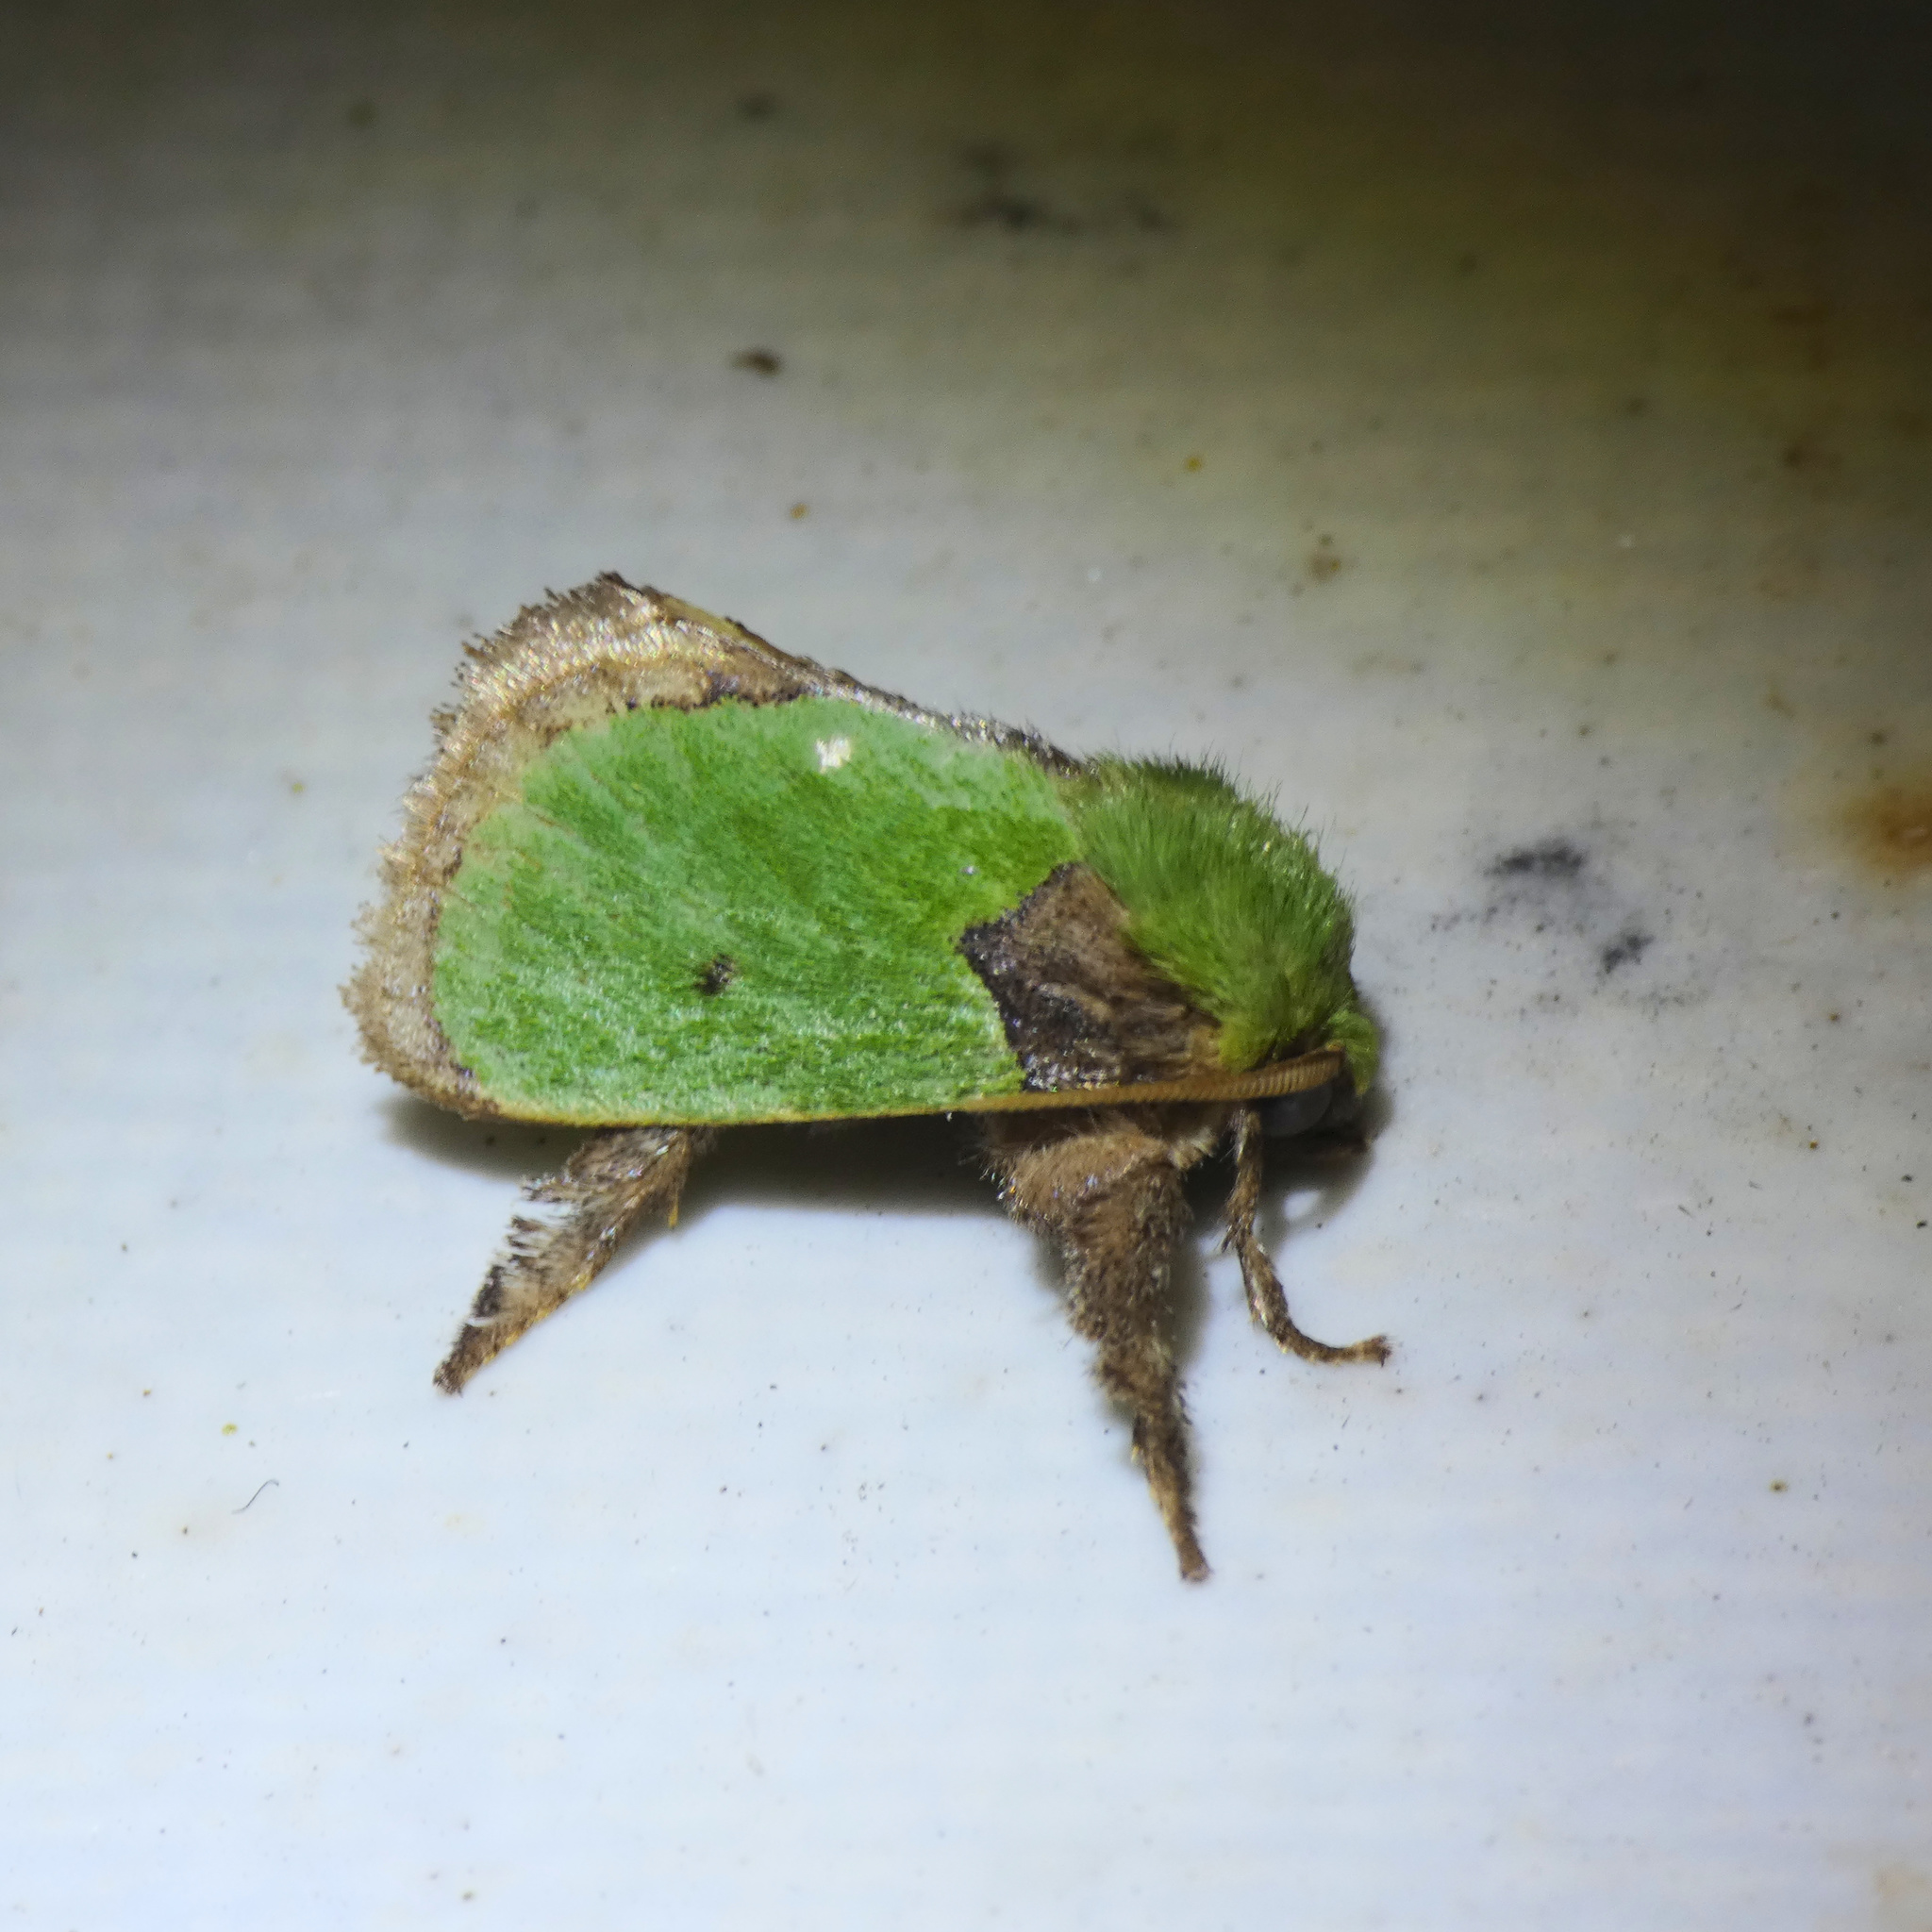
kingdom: Animalia
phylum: Arthropoda
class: Insecta
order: Lepidoptera
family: Limacodidae
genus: Parasa
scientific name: Parasa vivida
